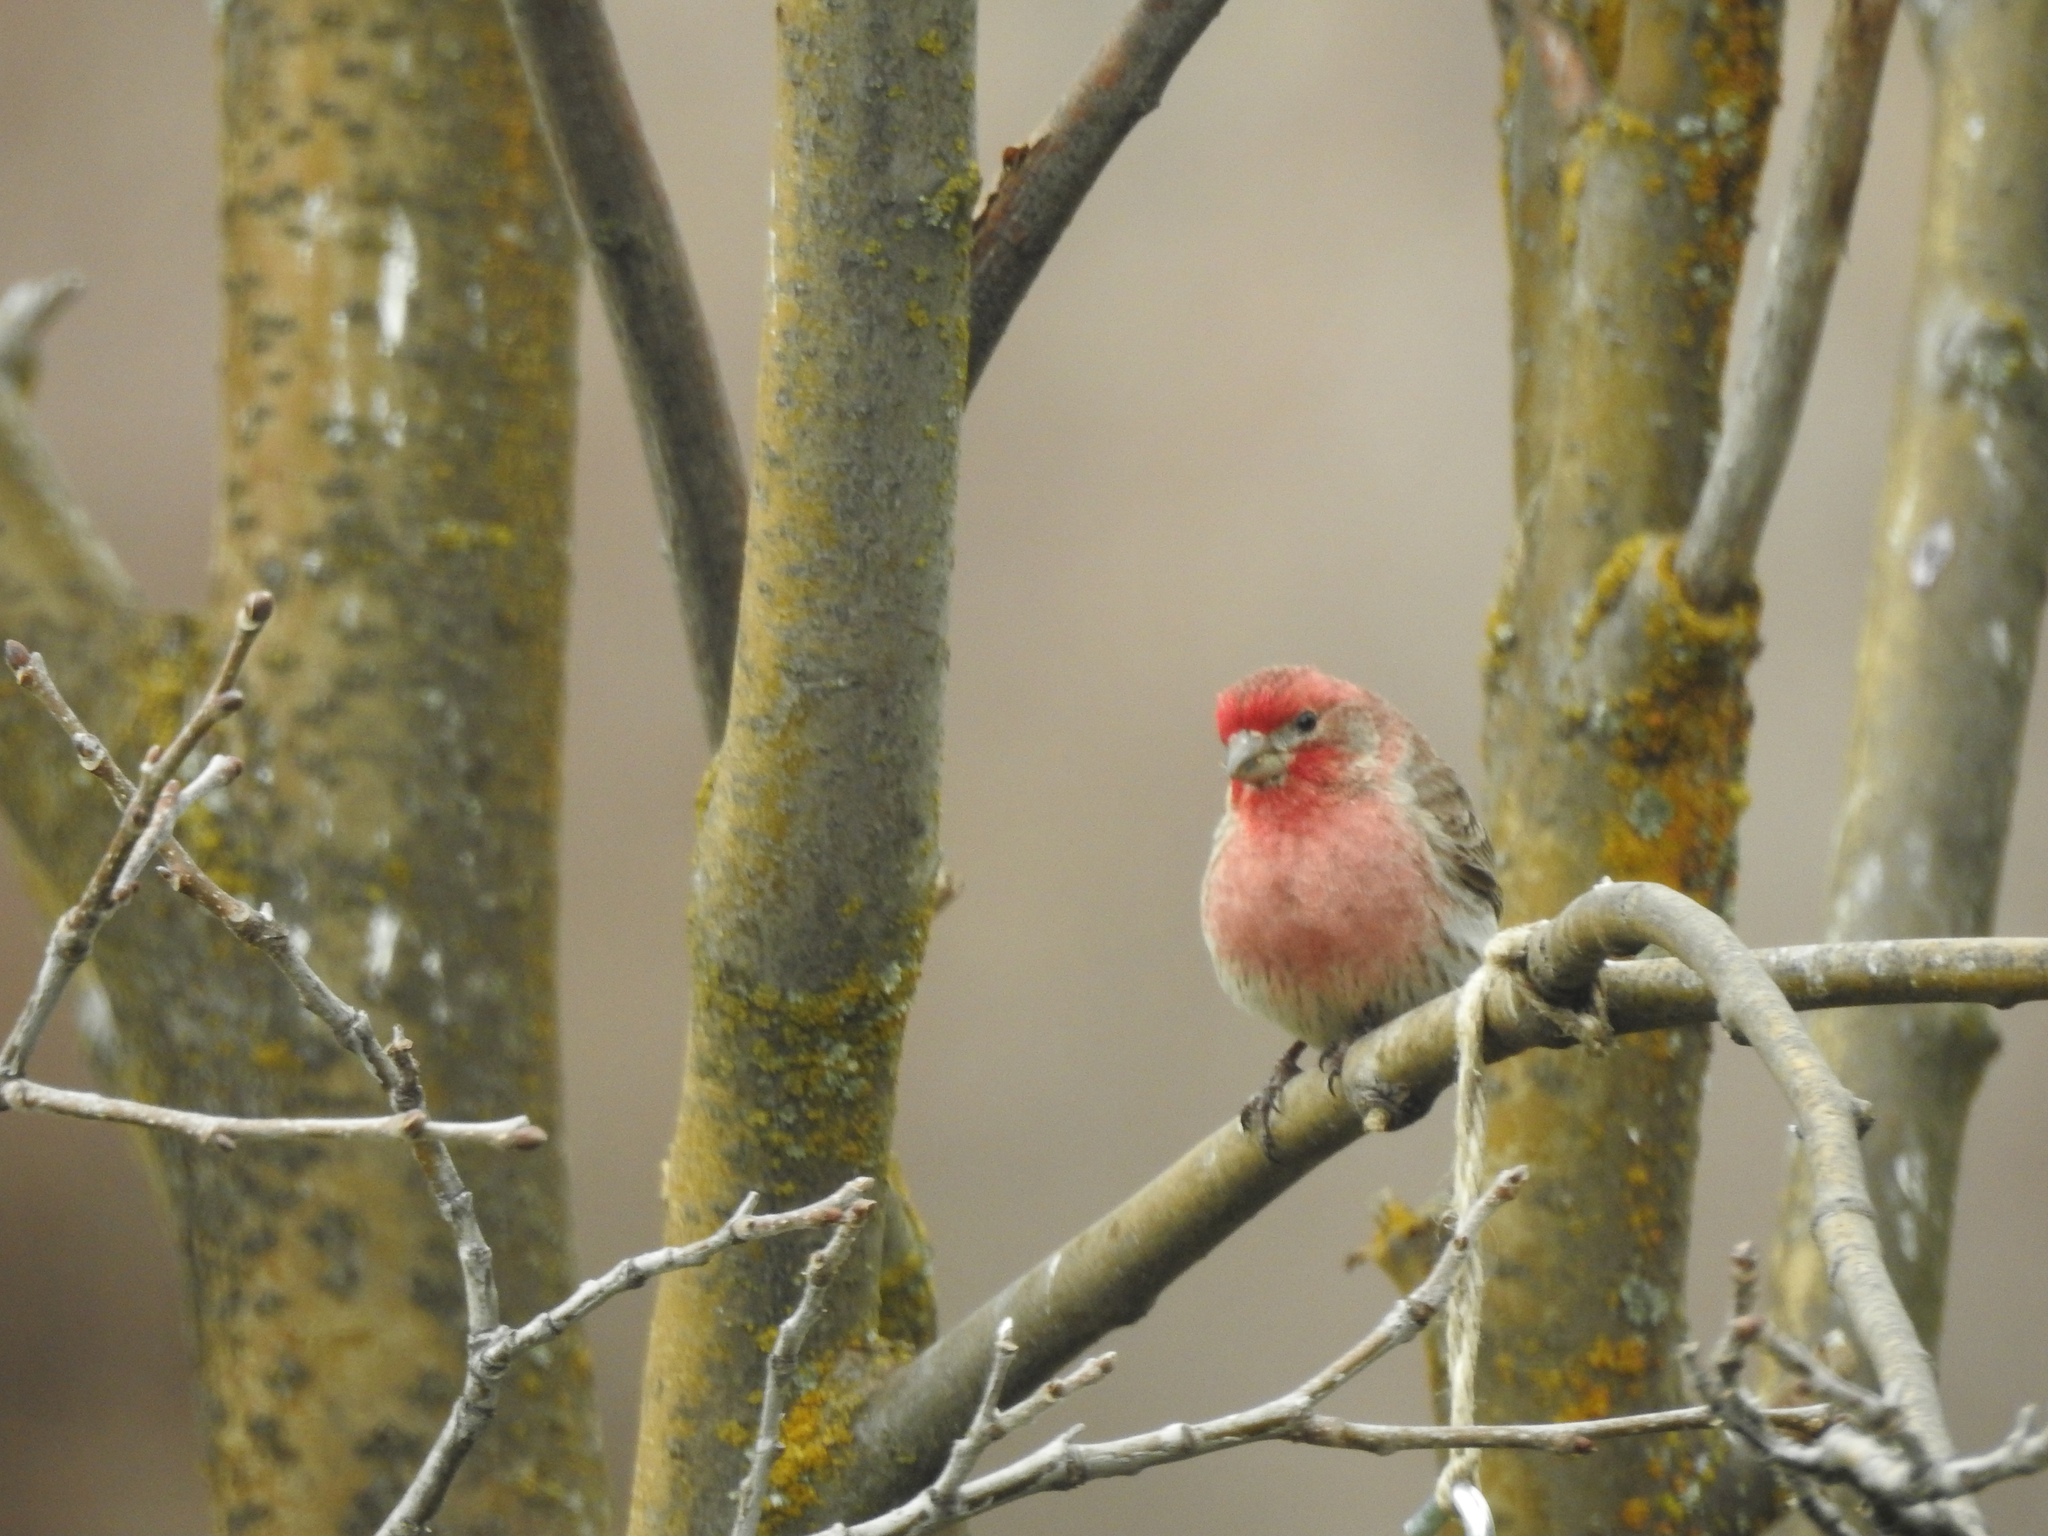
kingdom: Animalia
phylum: Chordata
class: Aves
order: Passeriformes
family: Fringillidae
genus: Haemorhous
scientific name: Haemorhous mexicanus
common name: House finch
